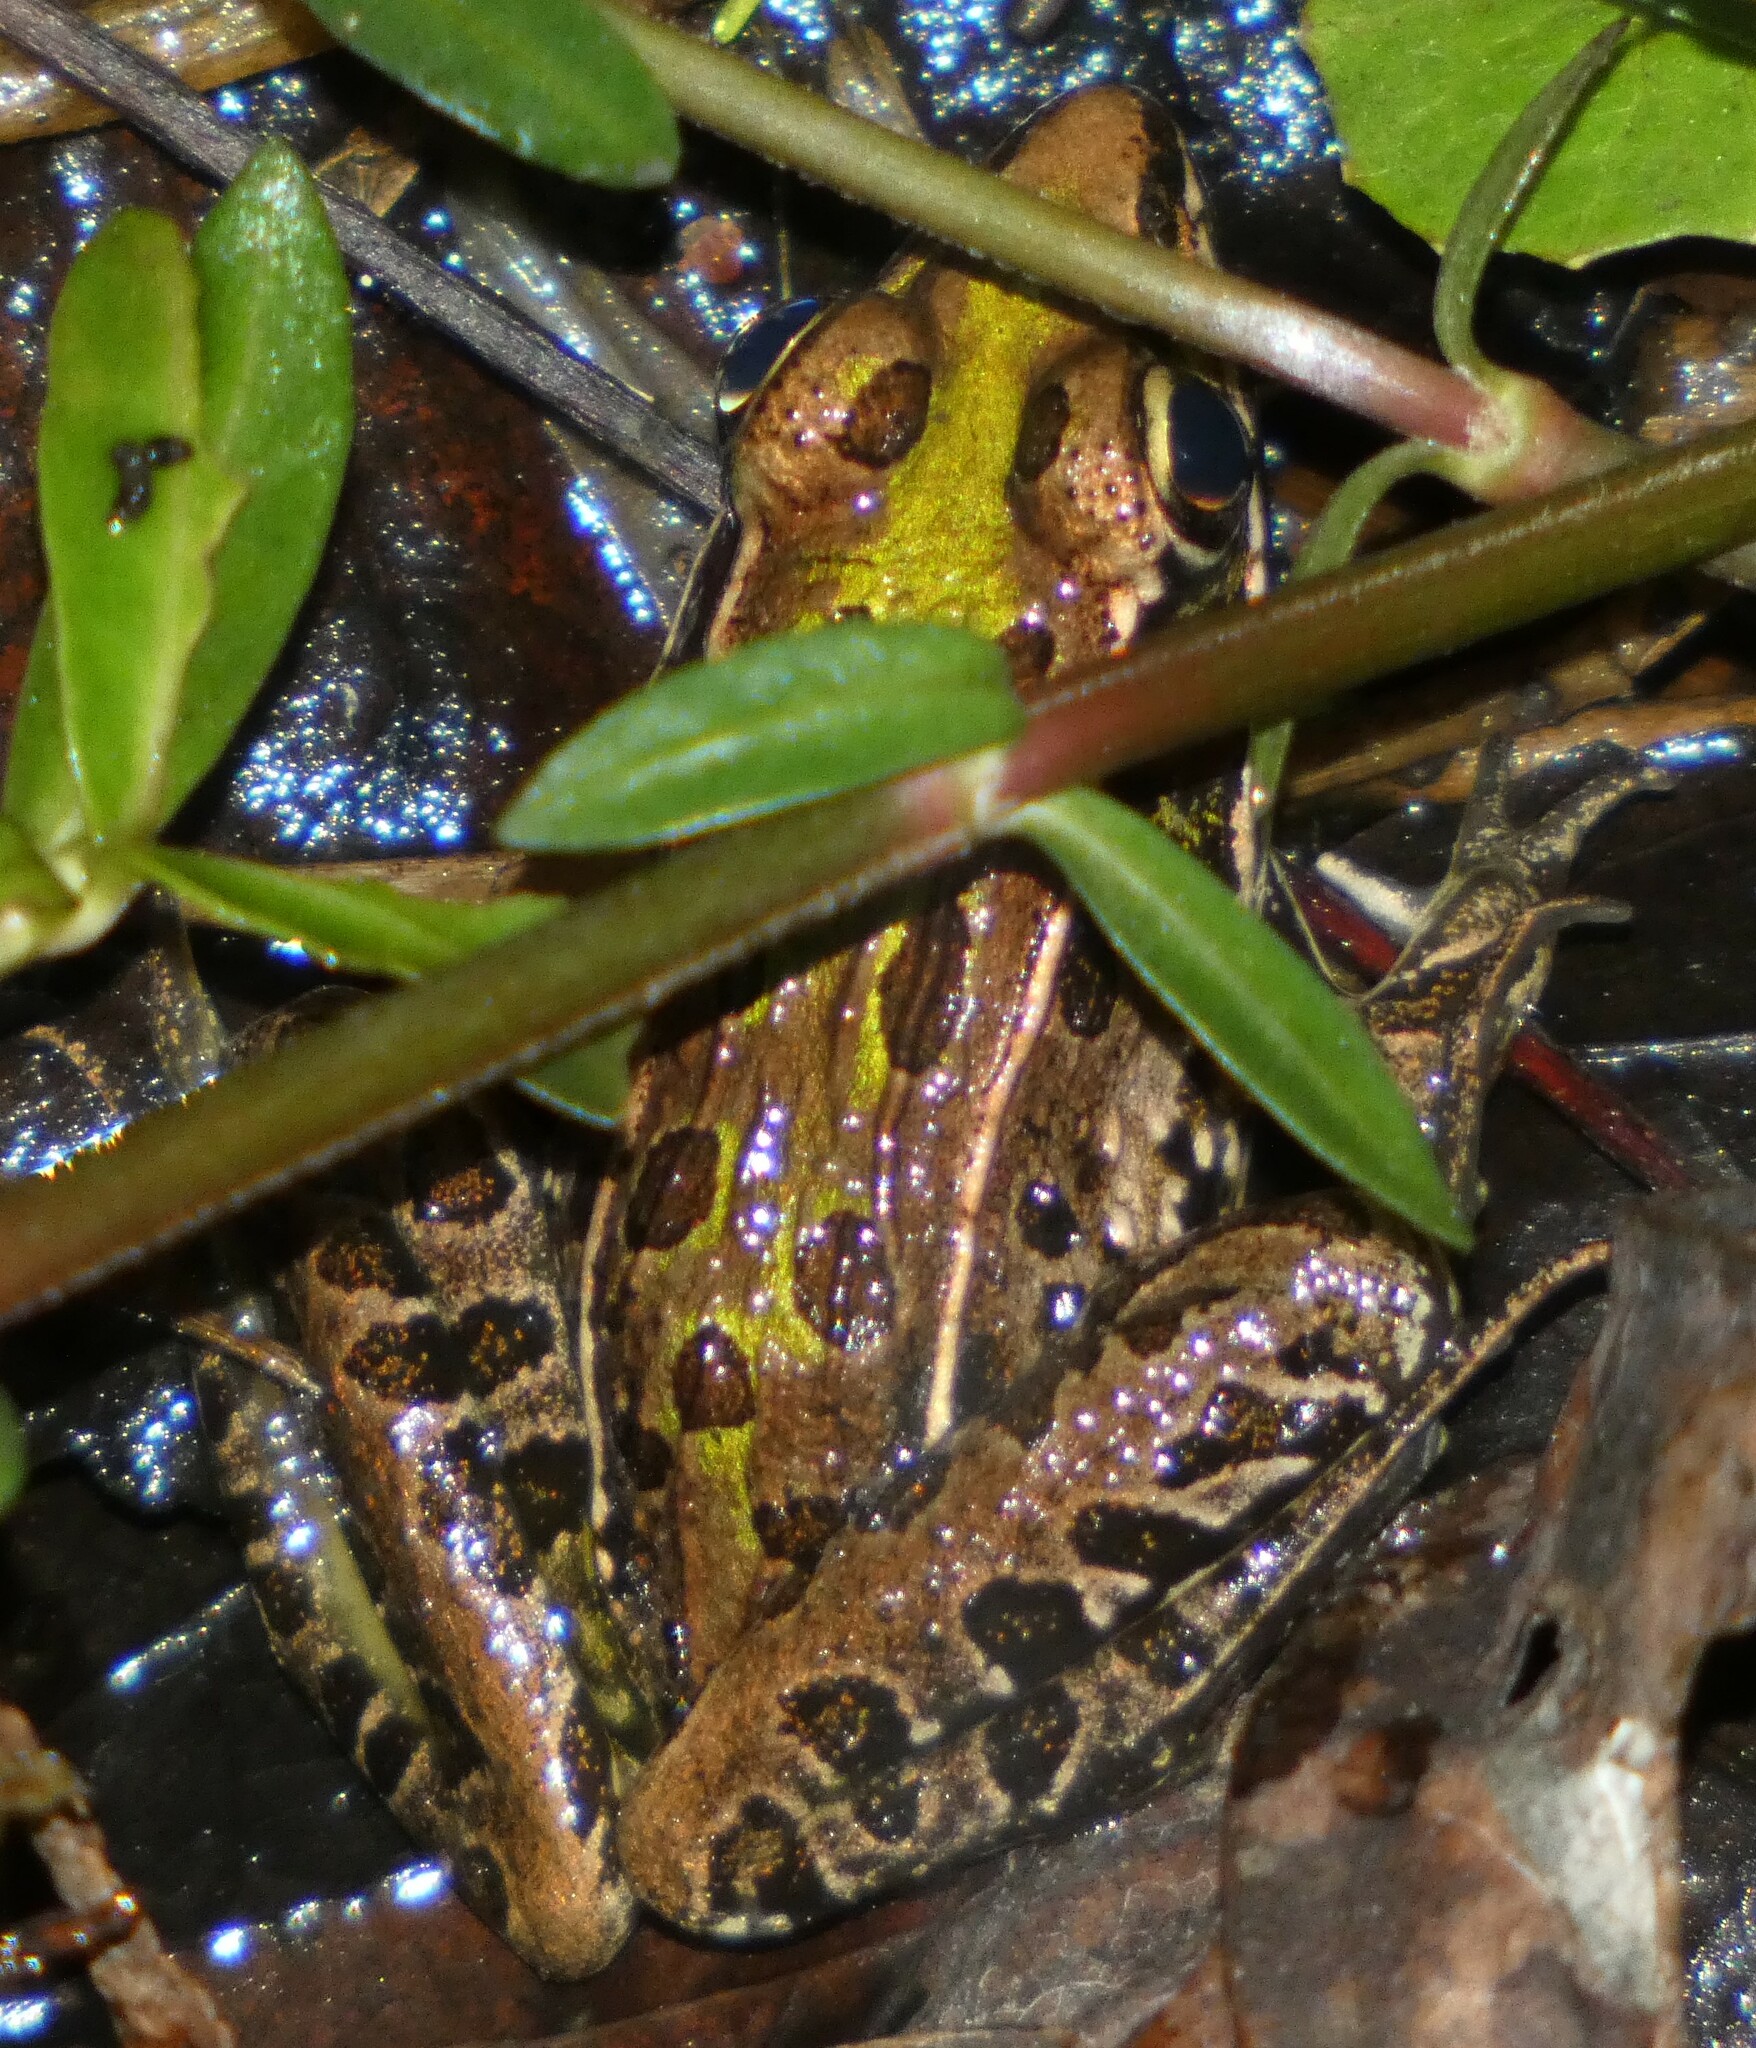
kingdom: Animalia
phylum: Chordata
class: Amphibia
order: Anura
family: Ranidae
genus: Lithobates
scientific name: Lithobates sphenocephalus
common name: Southern leopard frog
